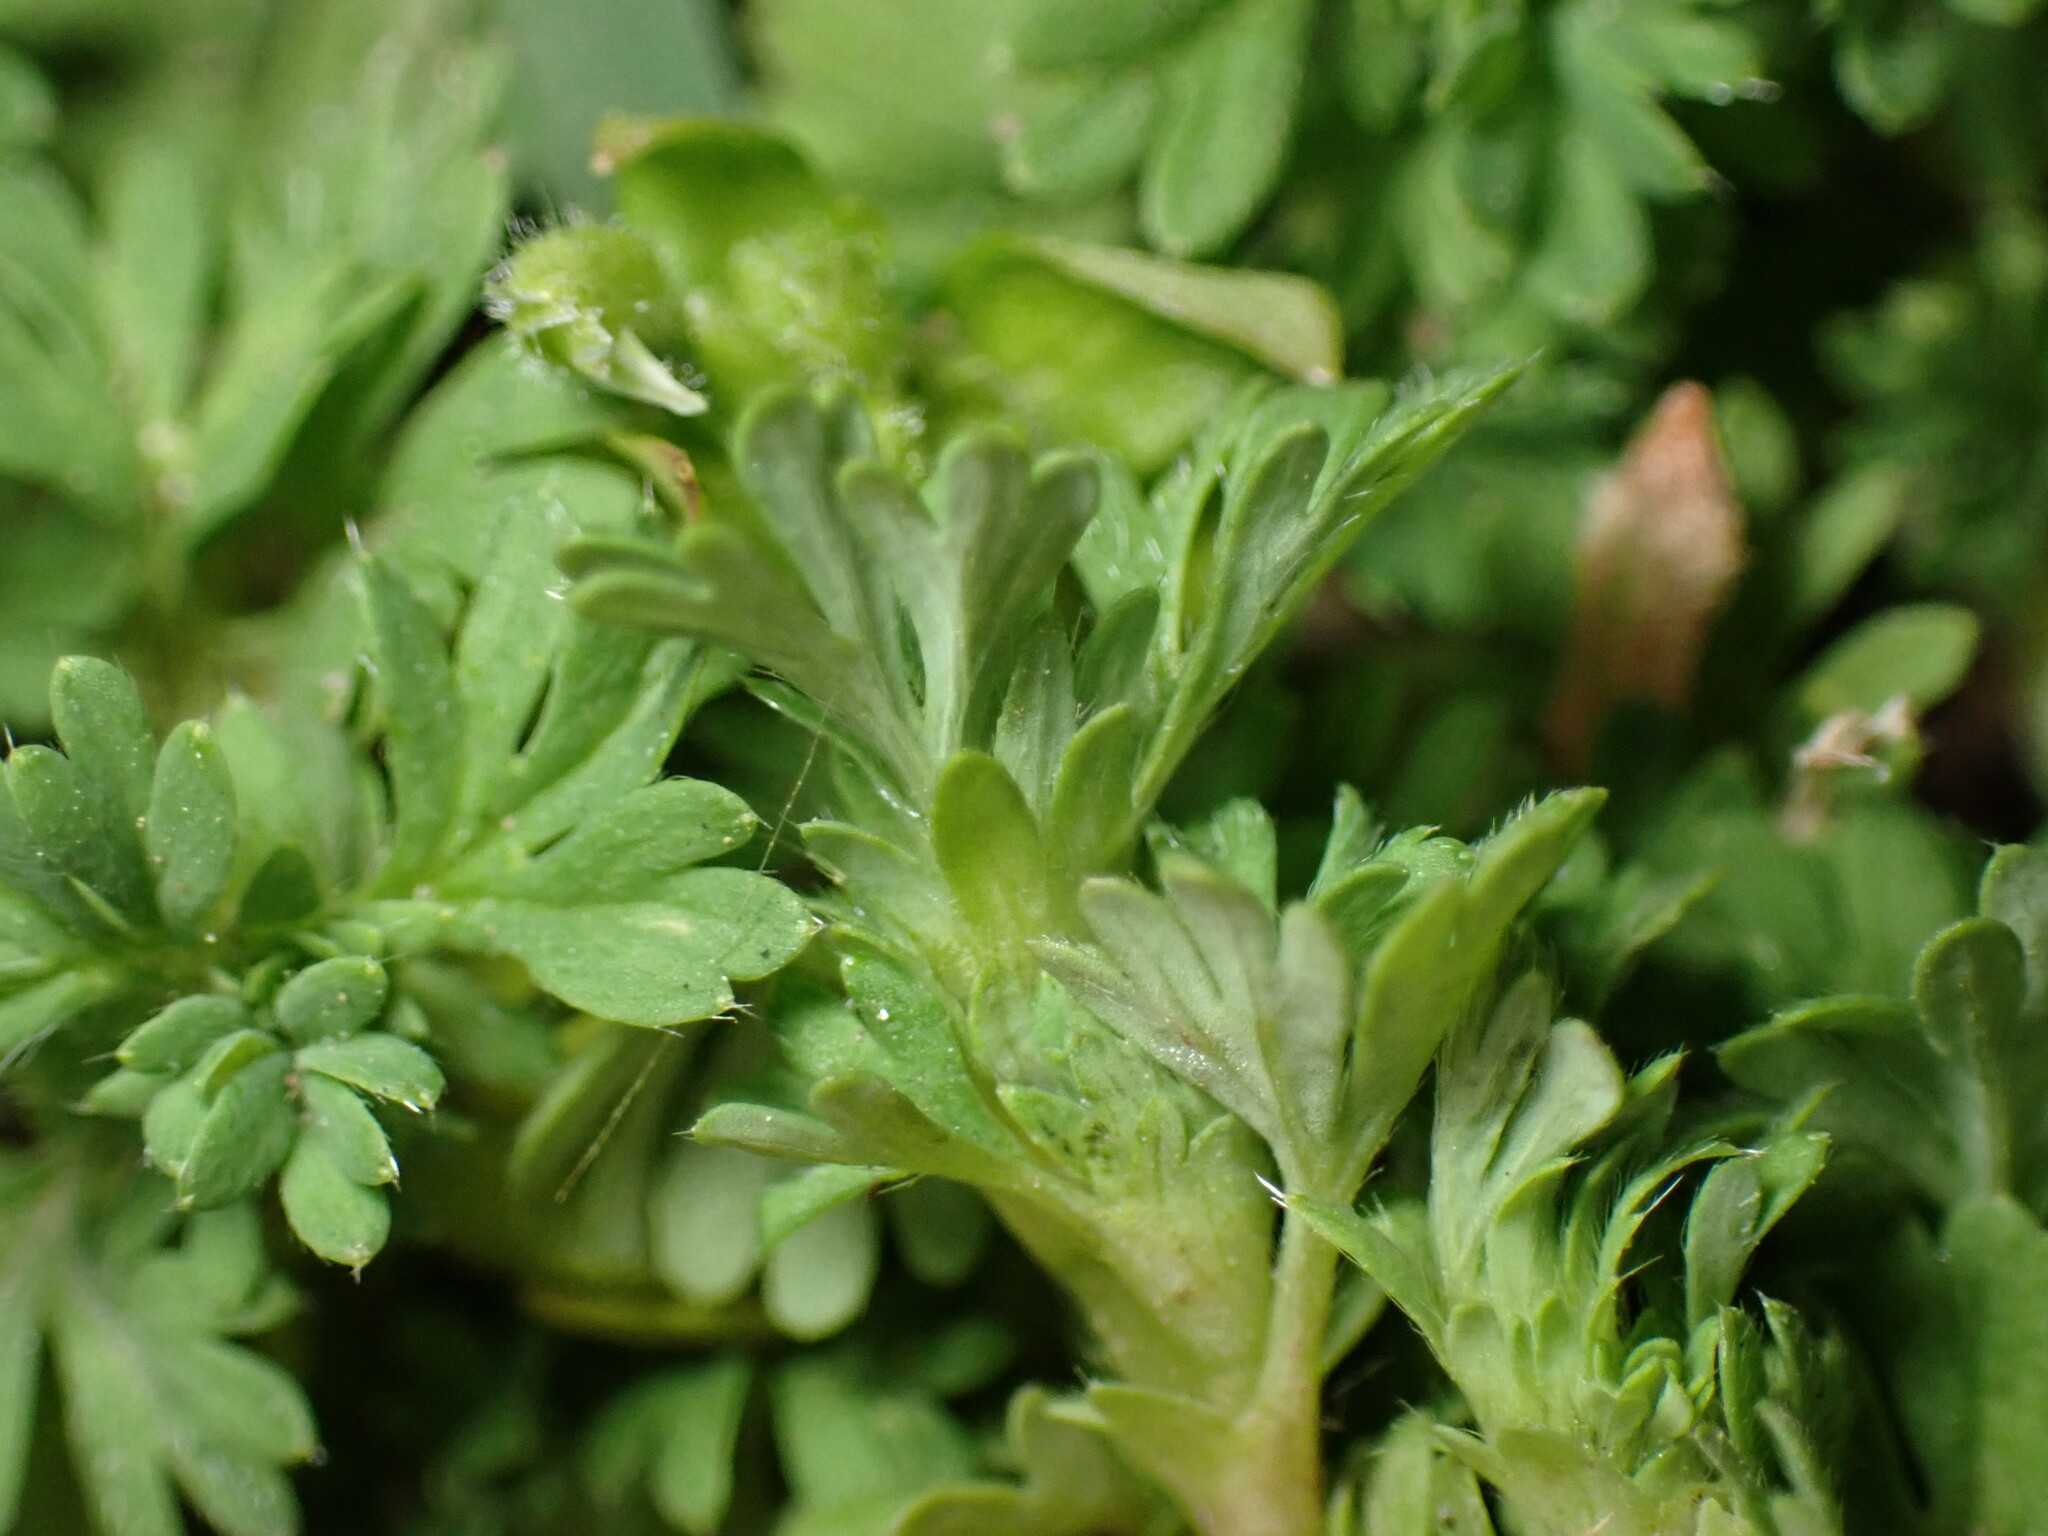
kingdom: Plantae
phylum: Tracheophyta
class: Magnoliopsida
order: Rosales
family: Rosaceae
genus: Aphanes
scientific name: Aphanes australis
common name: Slender parsley-piert
